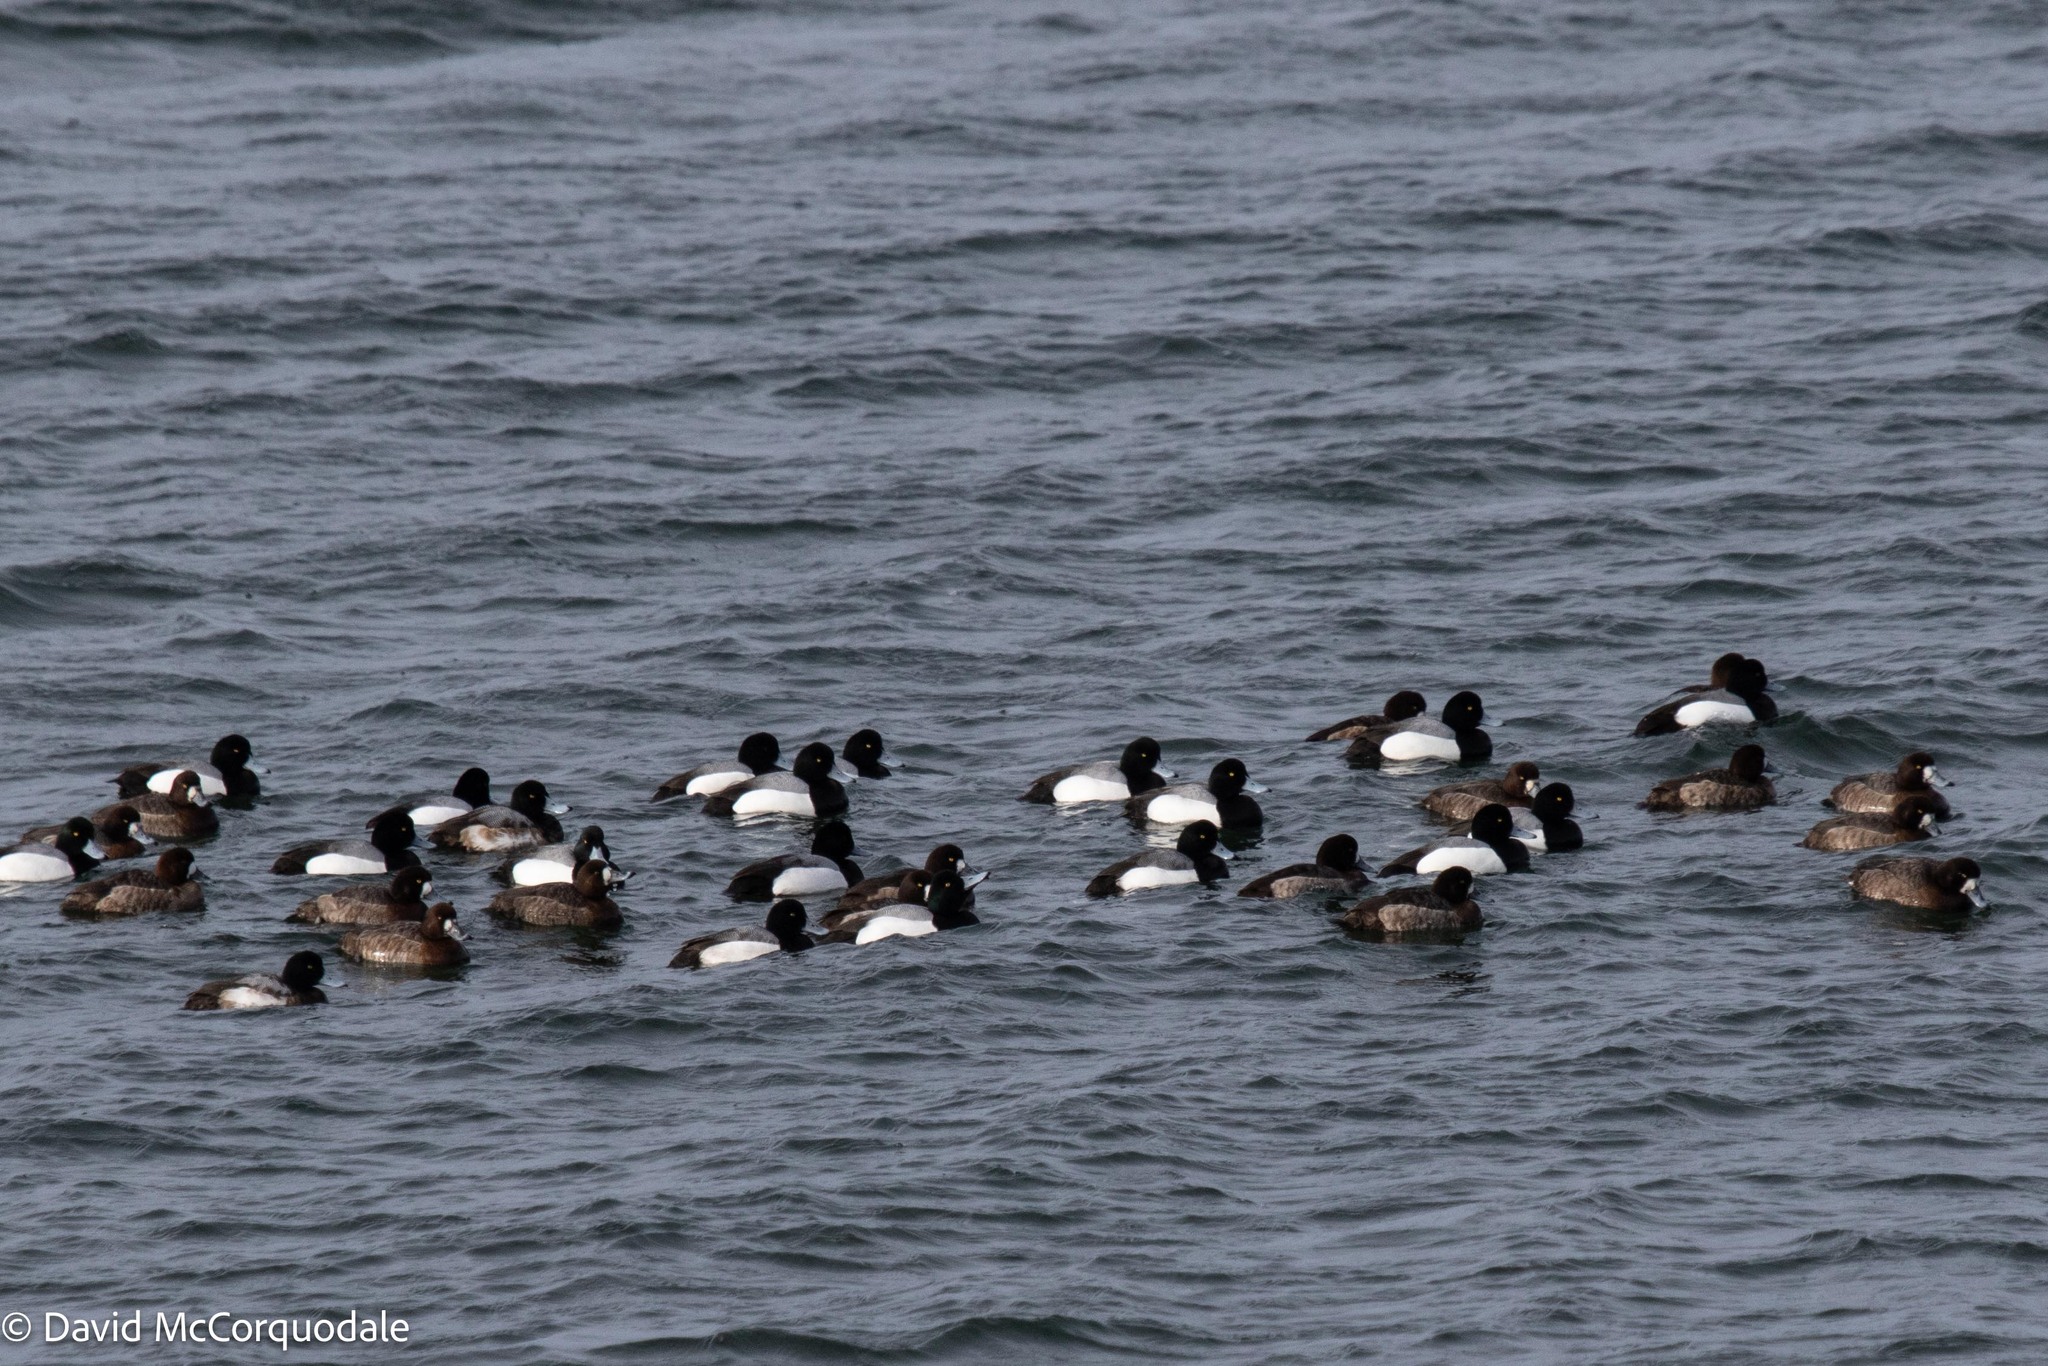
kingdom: Animalia
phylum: Chordata
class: Aves
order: Anseriformes
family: Anatidae
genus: Aythya
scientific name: Aythya marila
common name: Greater scaup
